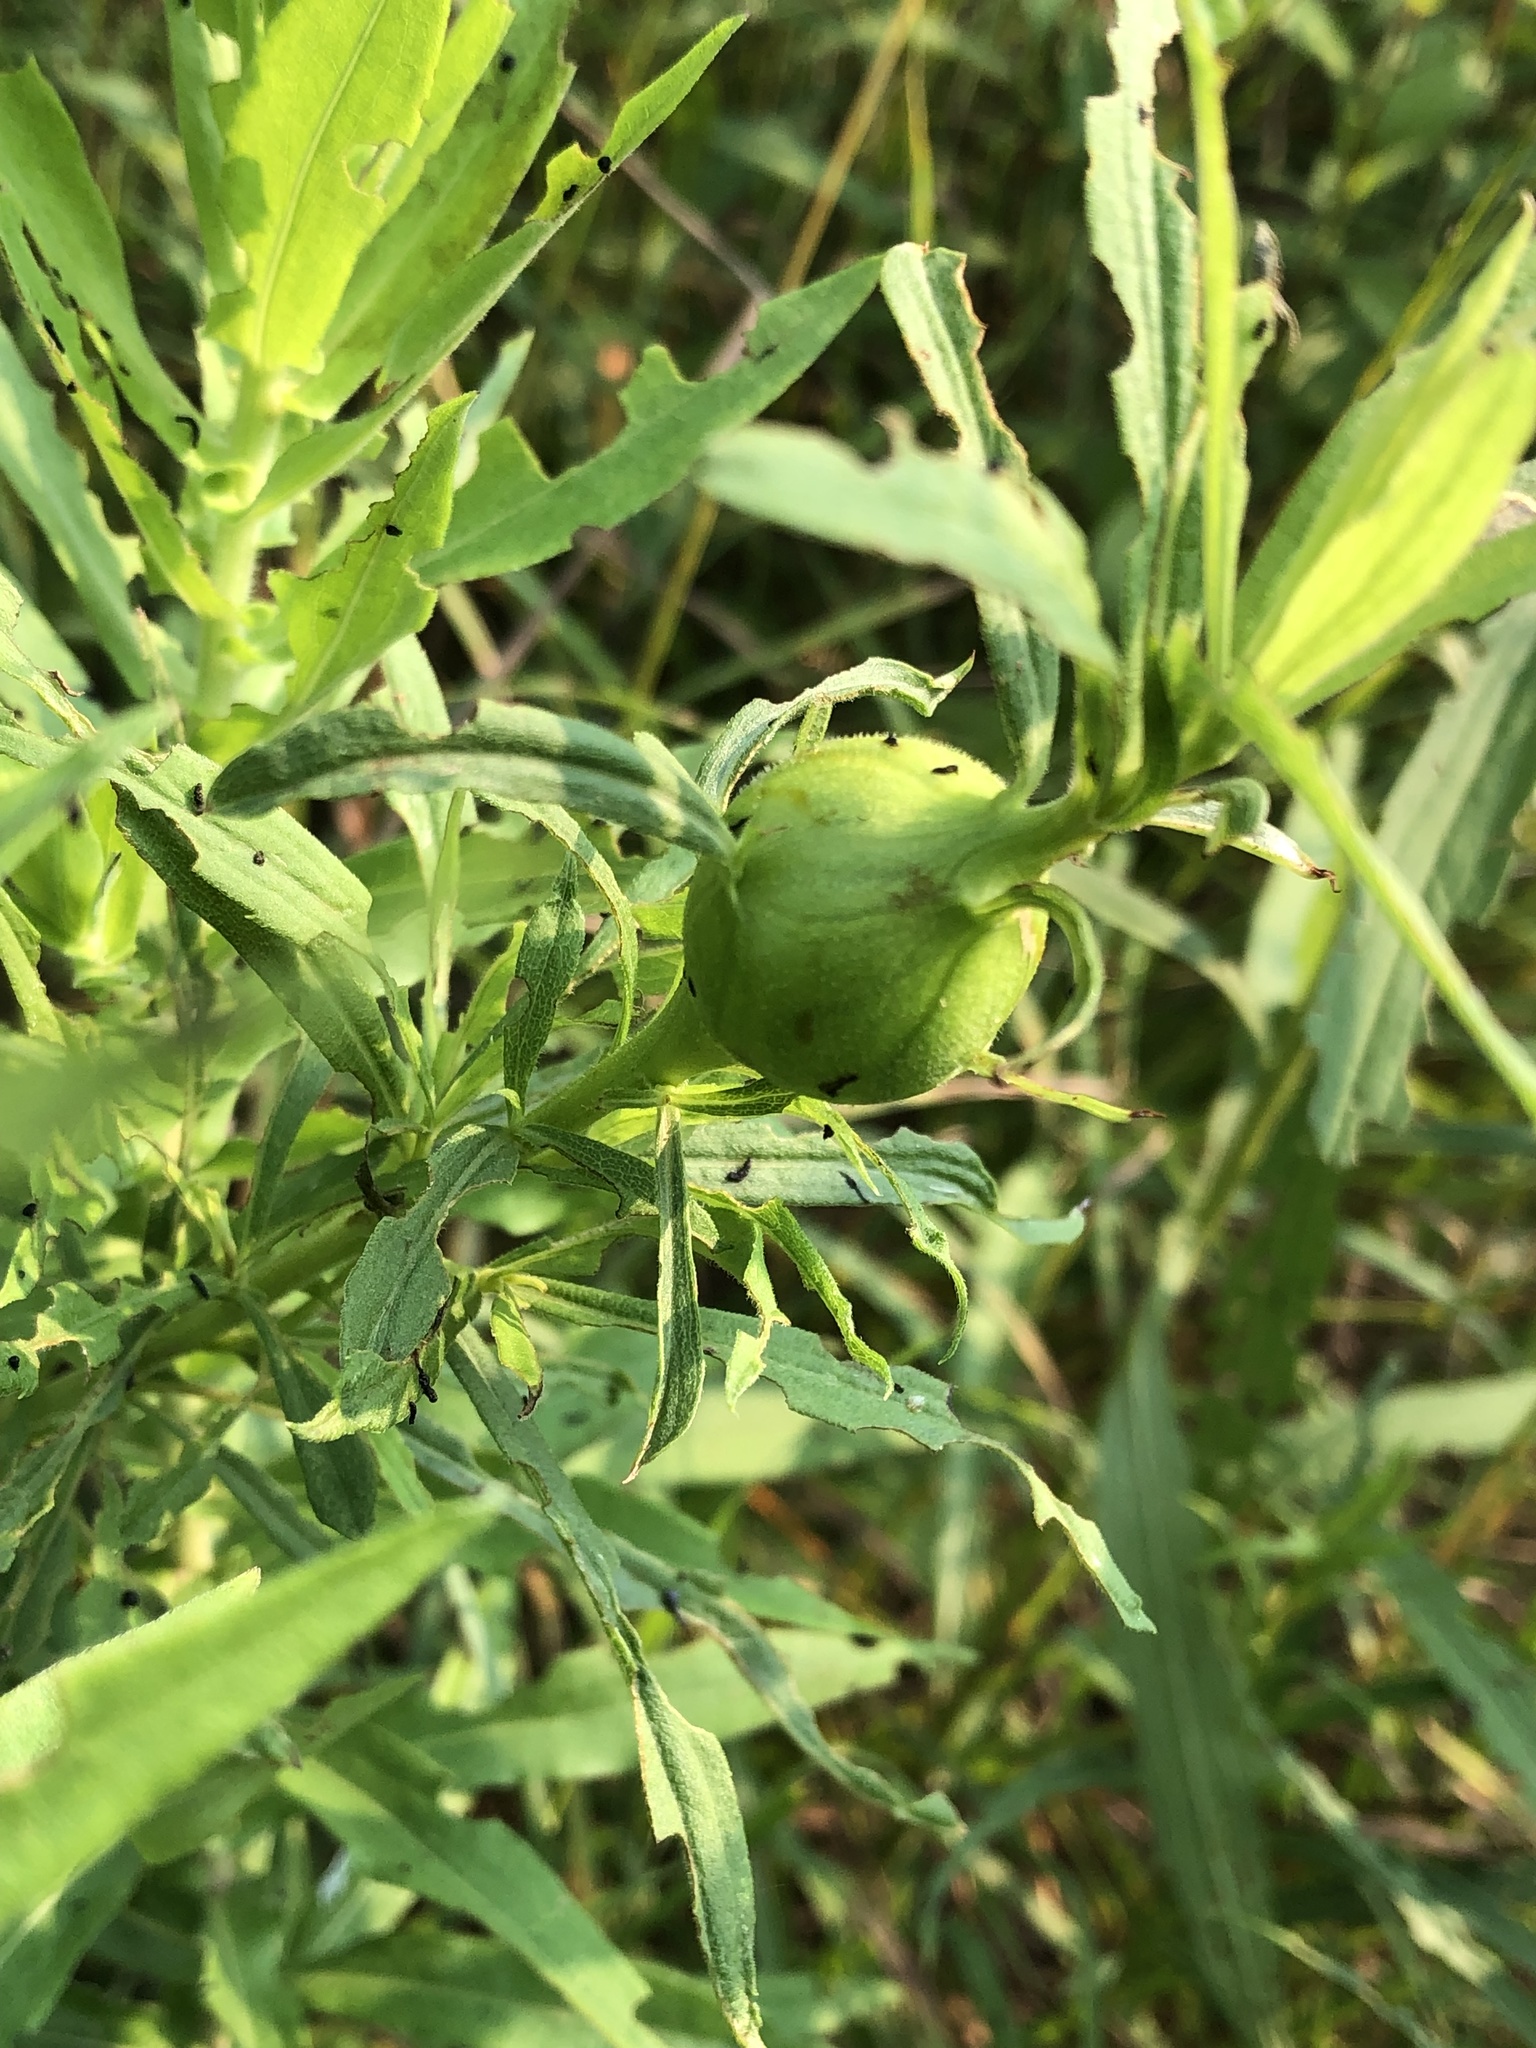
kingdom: Animalia
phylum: Arthropoda
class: Insecta
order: Diptera
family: Tephritidae
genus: Eurosta
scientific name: Eurosta solidaginis
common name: Goldenrod gall fly
